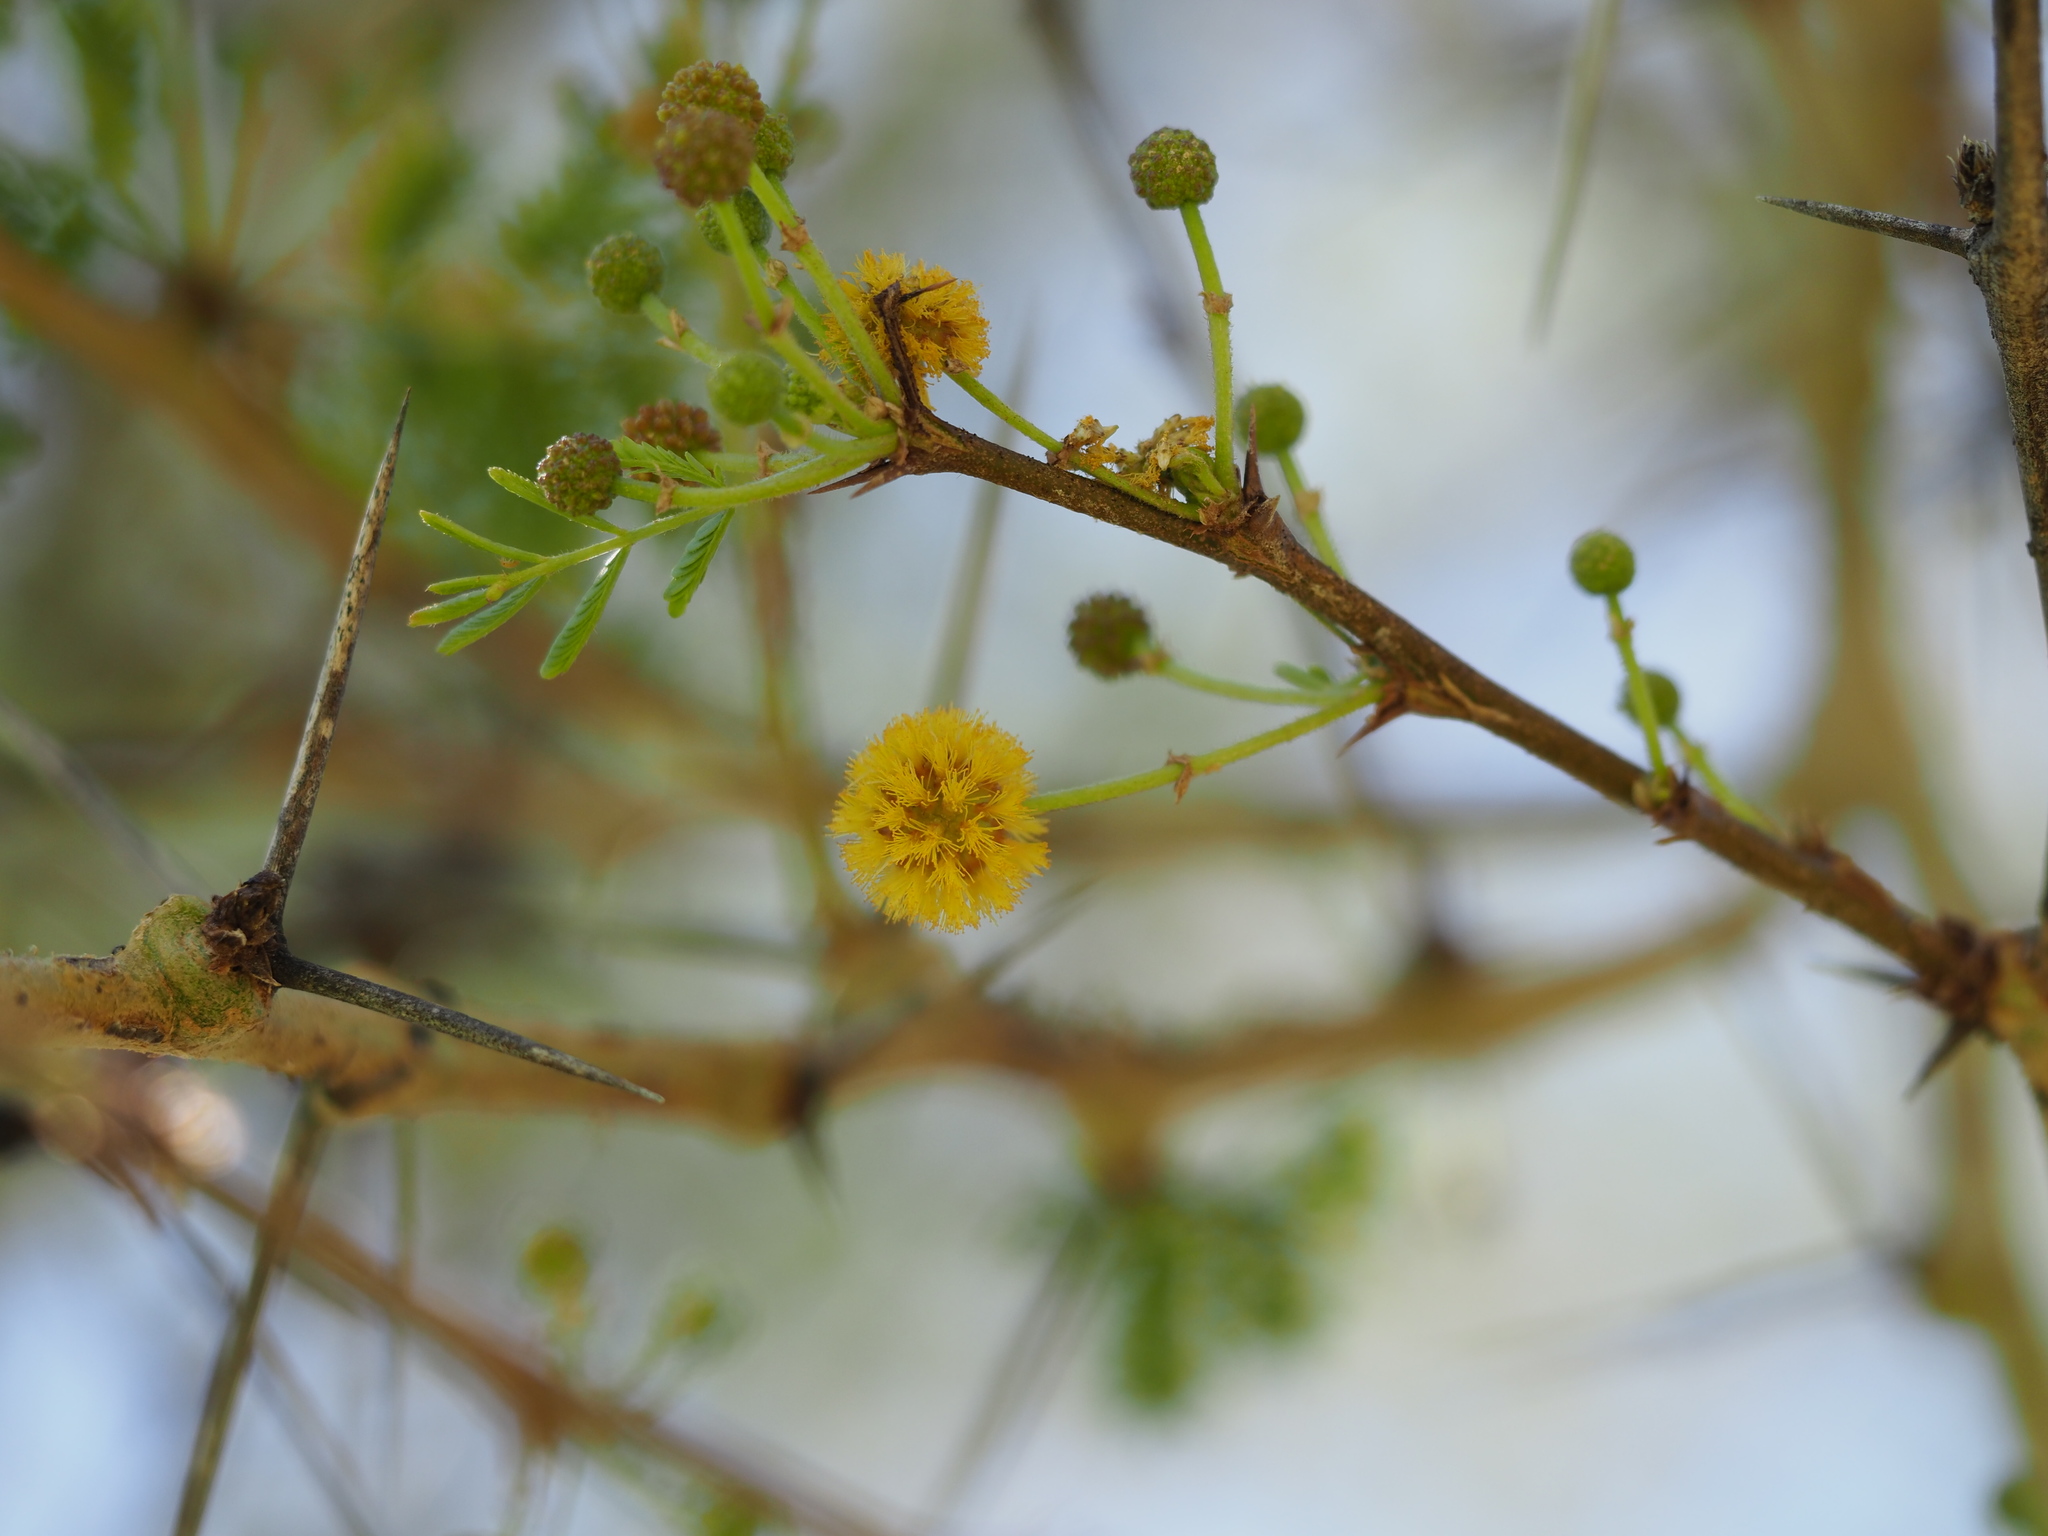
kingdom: Plantae
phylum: Tracheophyta
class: Magnoliopsida
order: Fabales
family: Fabaceae
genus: Vachellia
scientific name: Vachellia karroo
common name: Sweet thorn
